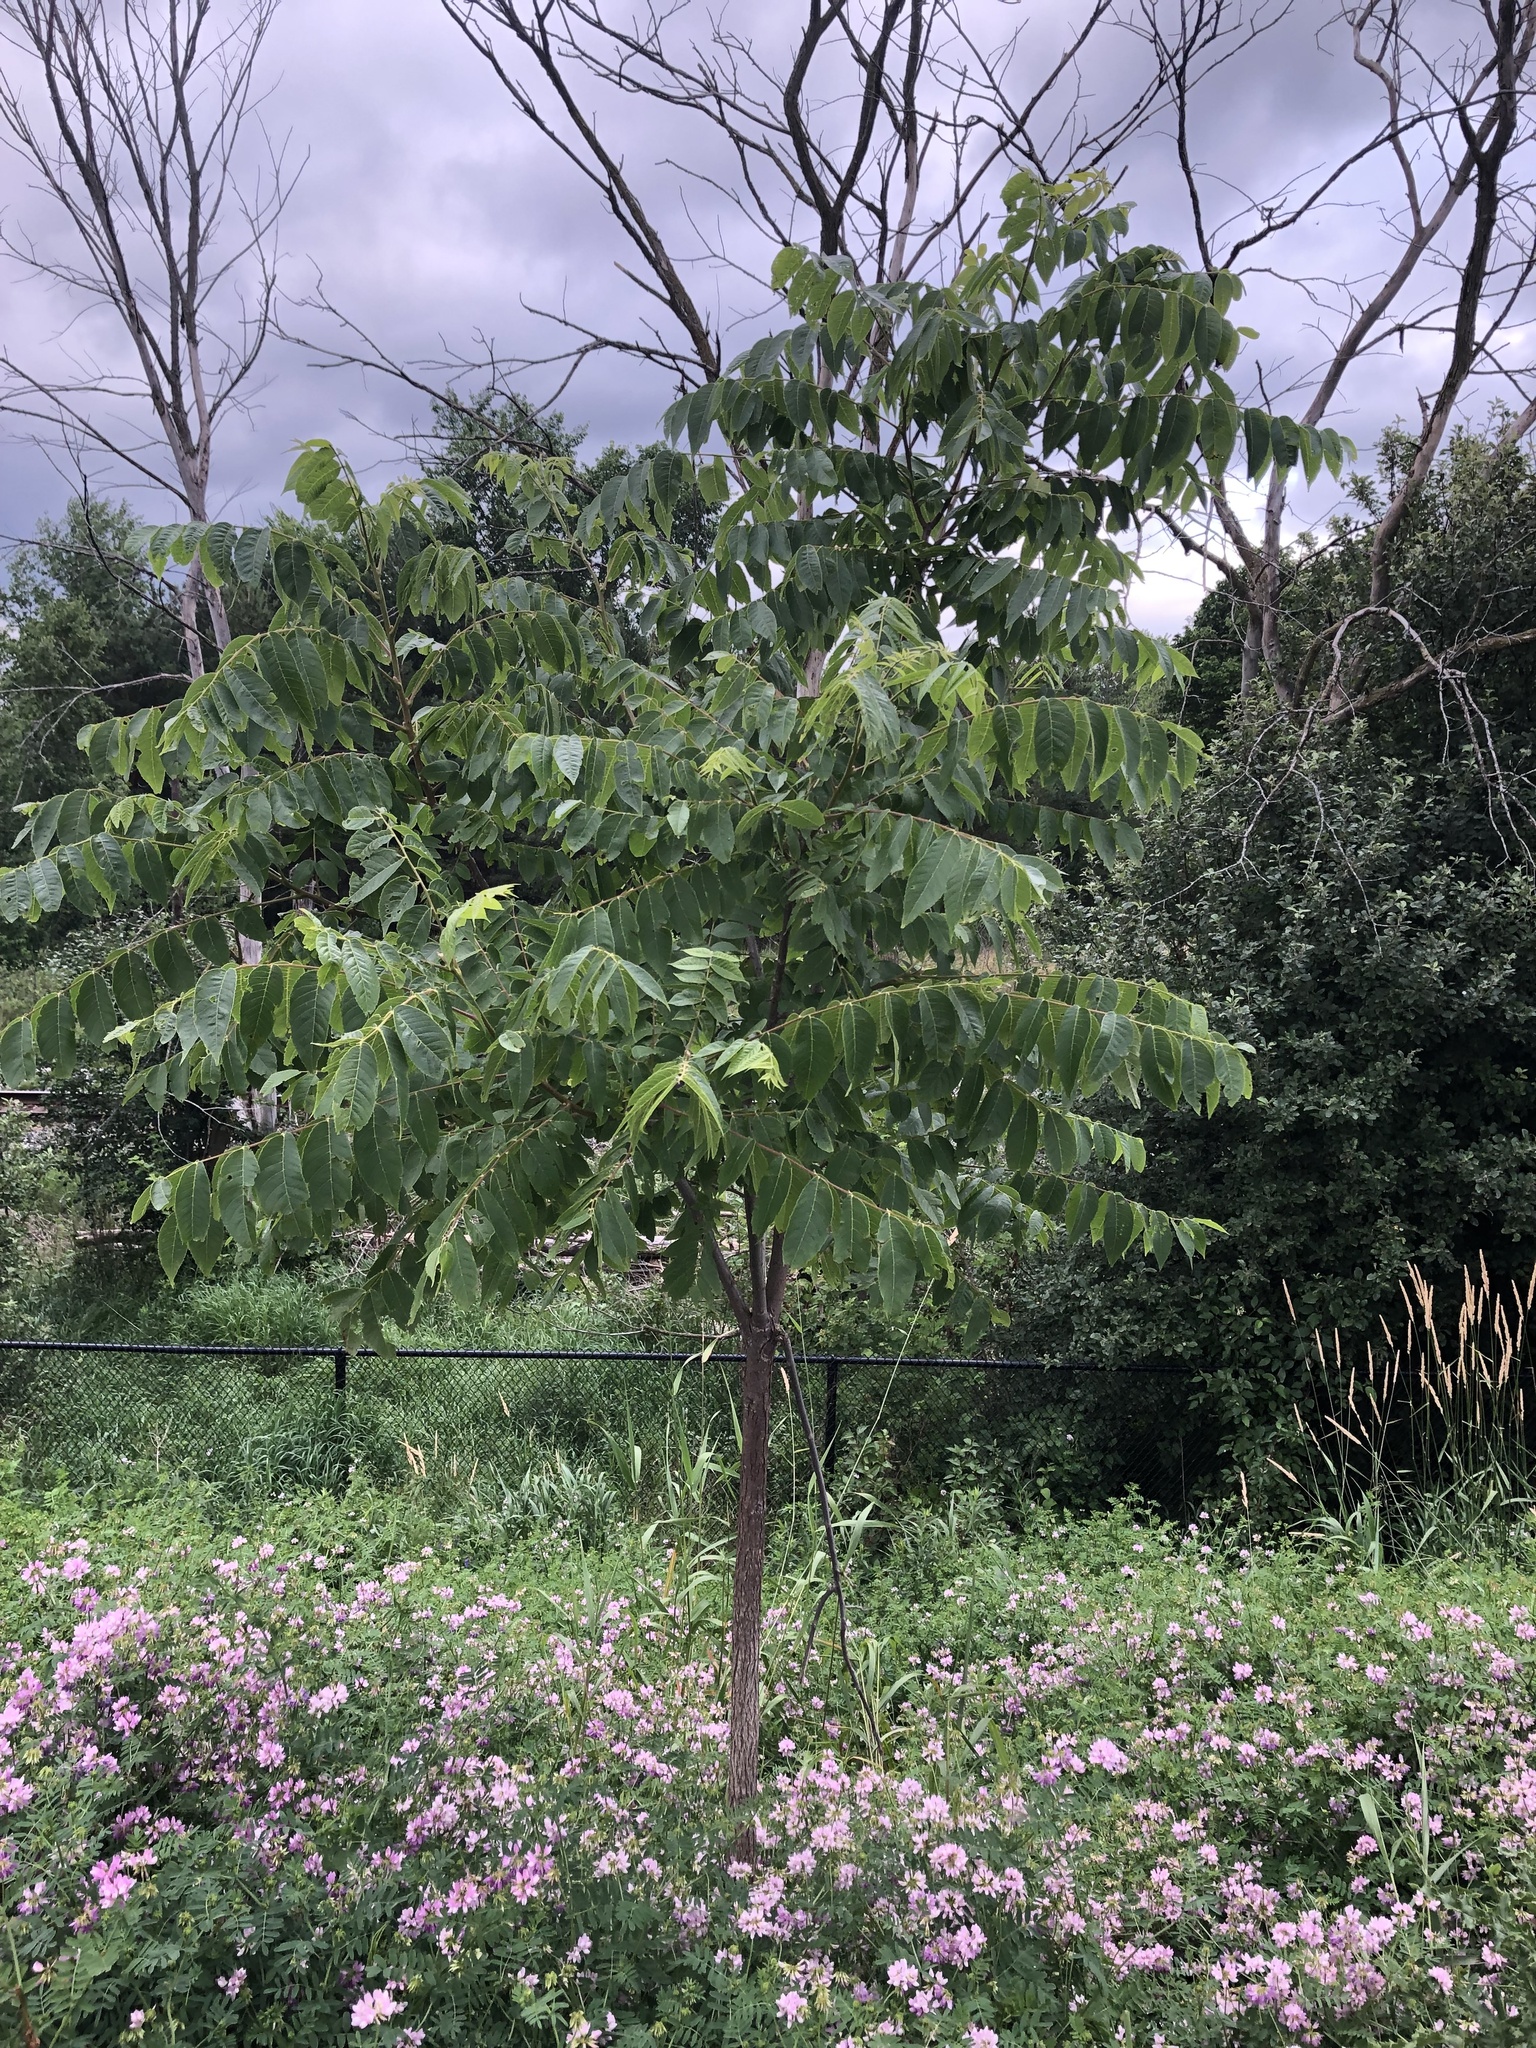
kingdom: Plantae
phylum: Tracheophyta
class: Magnoliopsida
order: Fagales
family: Juglandaceae
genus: Juglans
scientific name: Juglans nigra
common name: Black walnut
